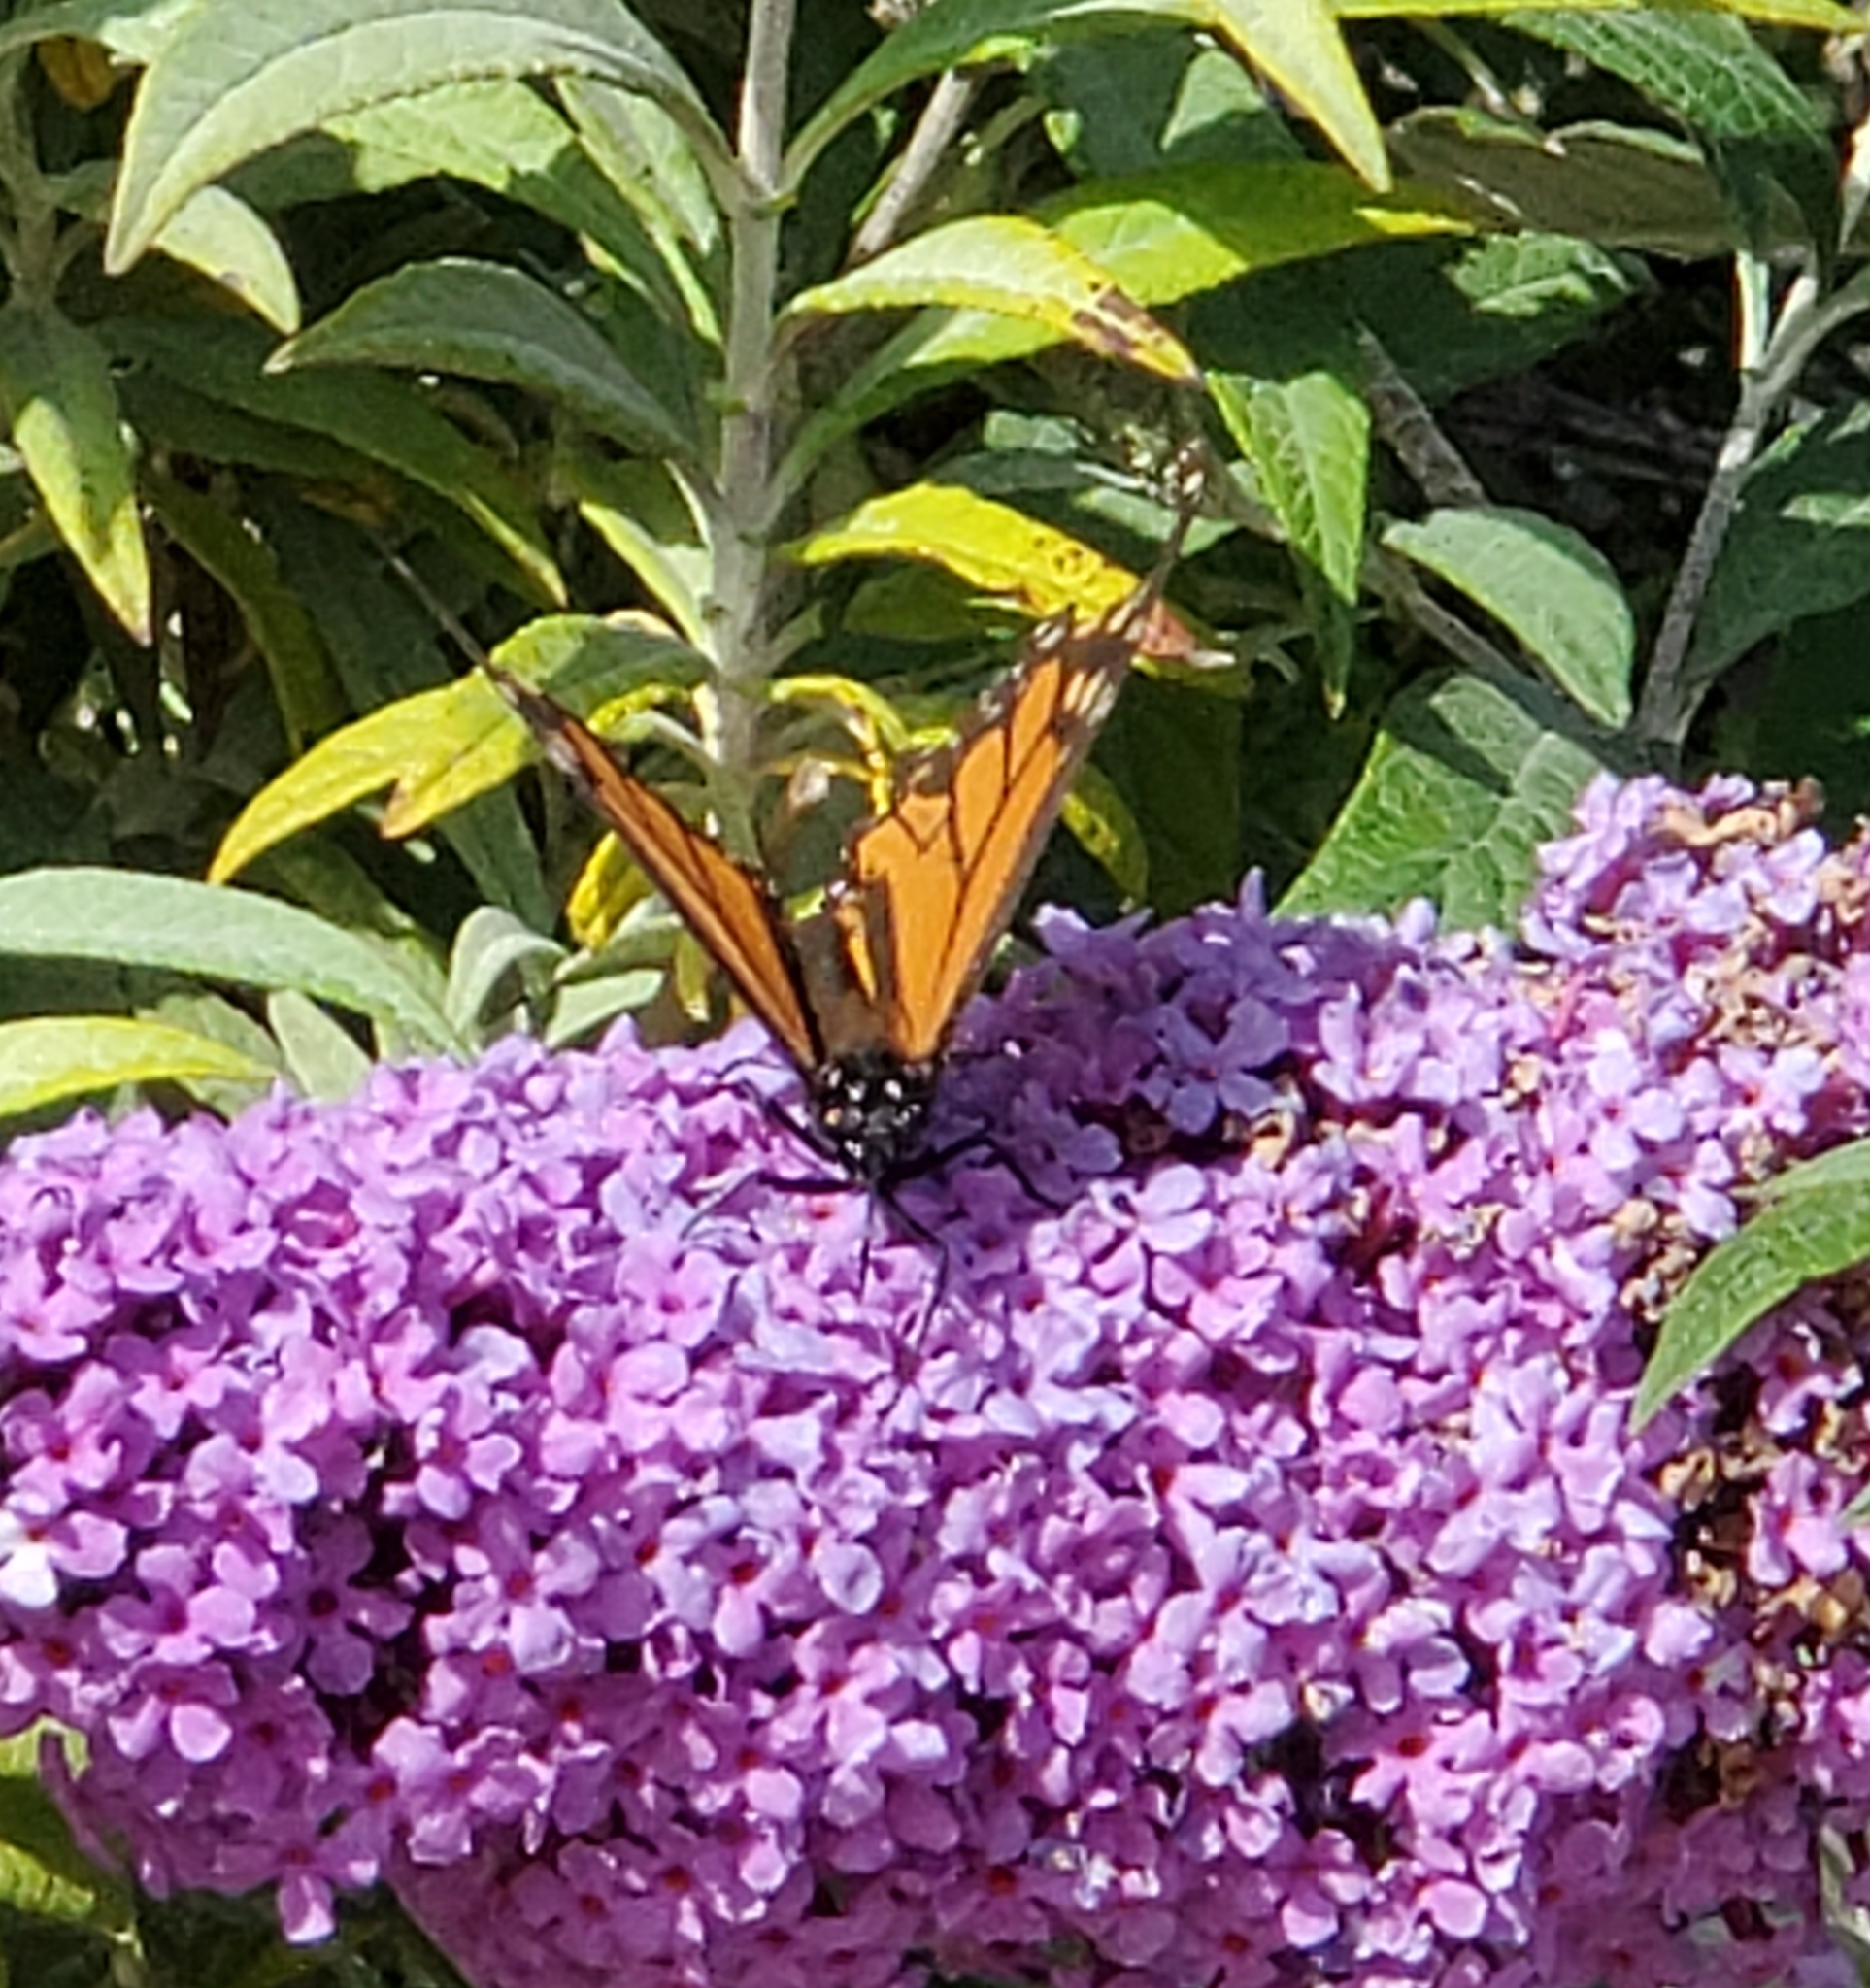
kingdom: Animalia
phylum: Arthropoda
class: Insecta
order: Lepidoptera
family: Nymphalidae
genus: Danaus
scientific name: Danaus plexippus
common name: Monarch
